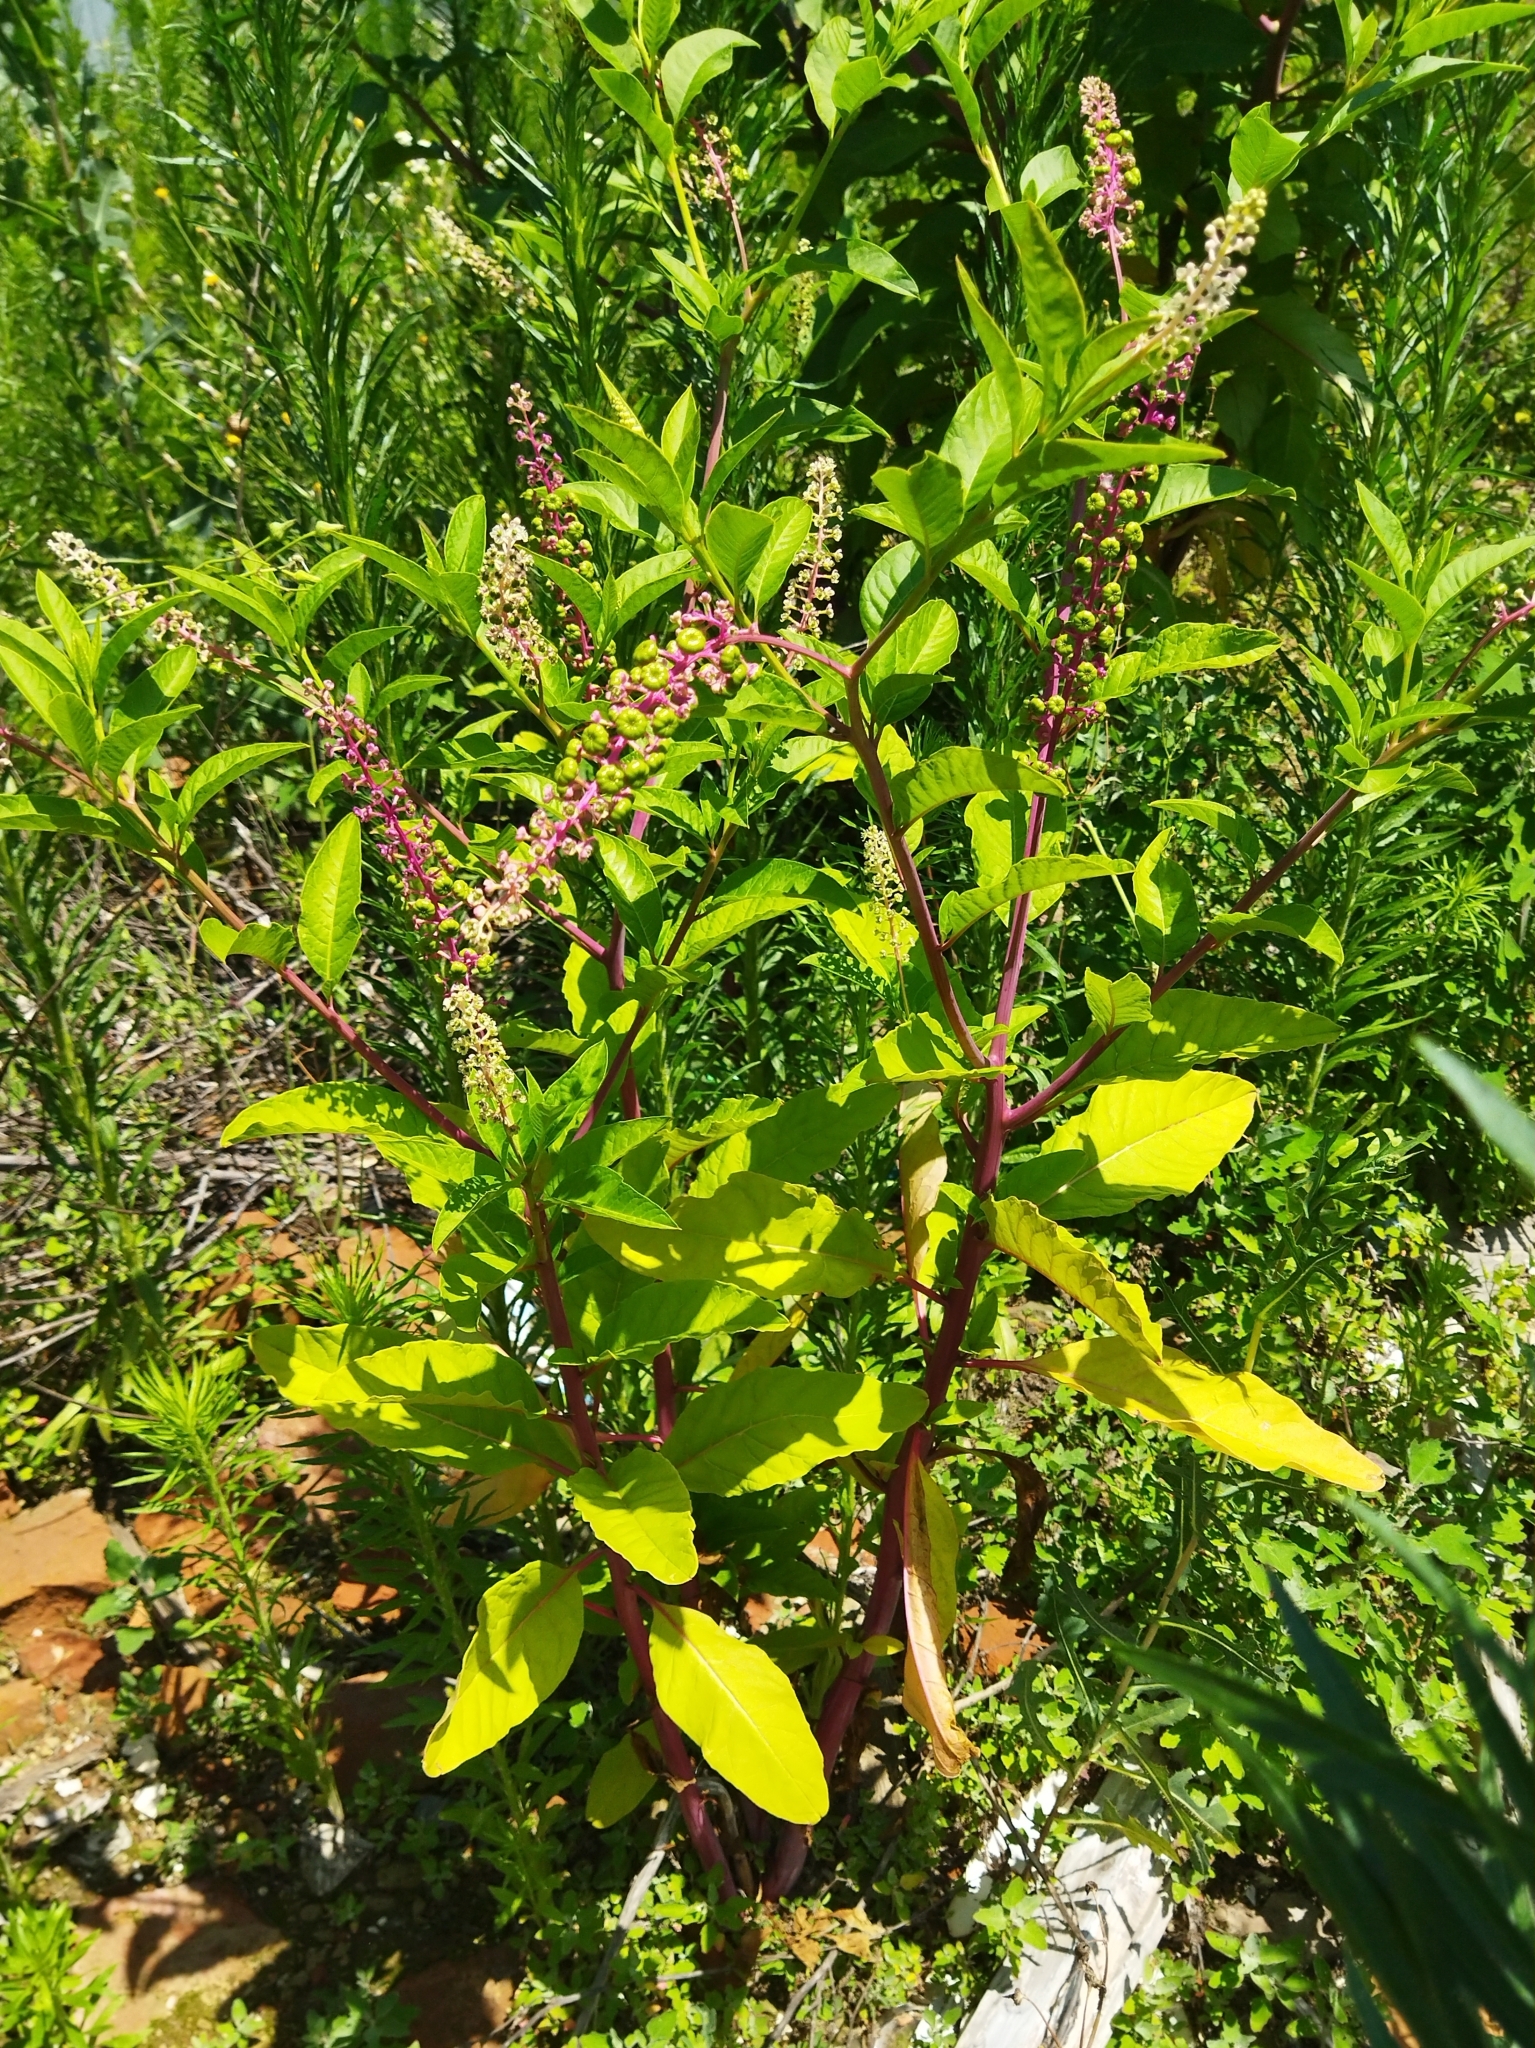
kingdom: Plantae
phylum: Tracheophyta
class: Magnoliopsida
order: Caryophyllales
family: Phytolaccaceae
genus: Phytolacca
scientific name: Phytolacca americana
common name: American pokeweed
